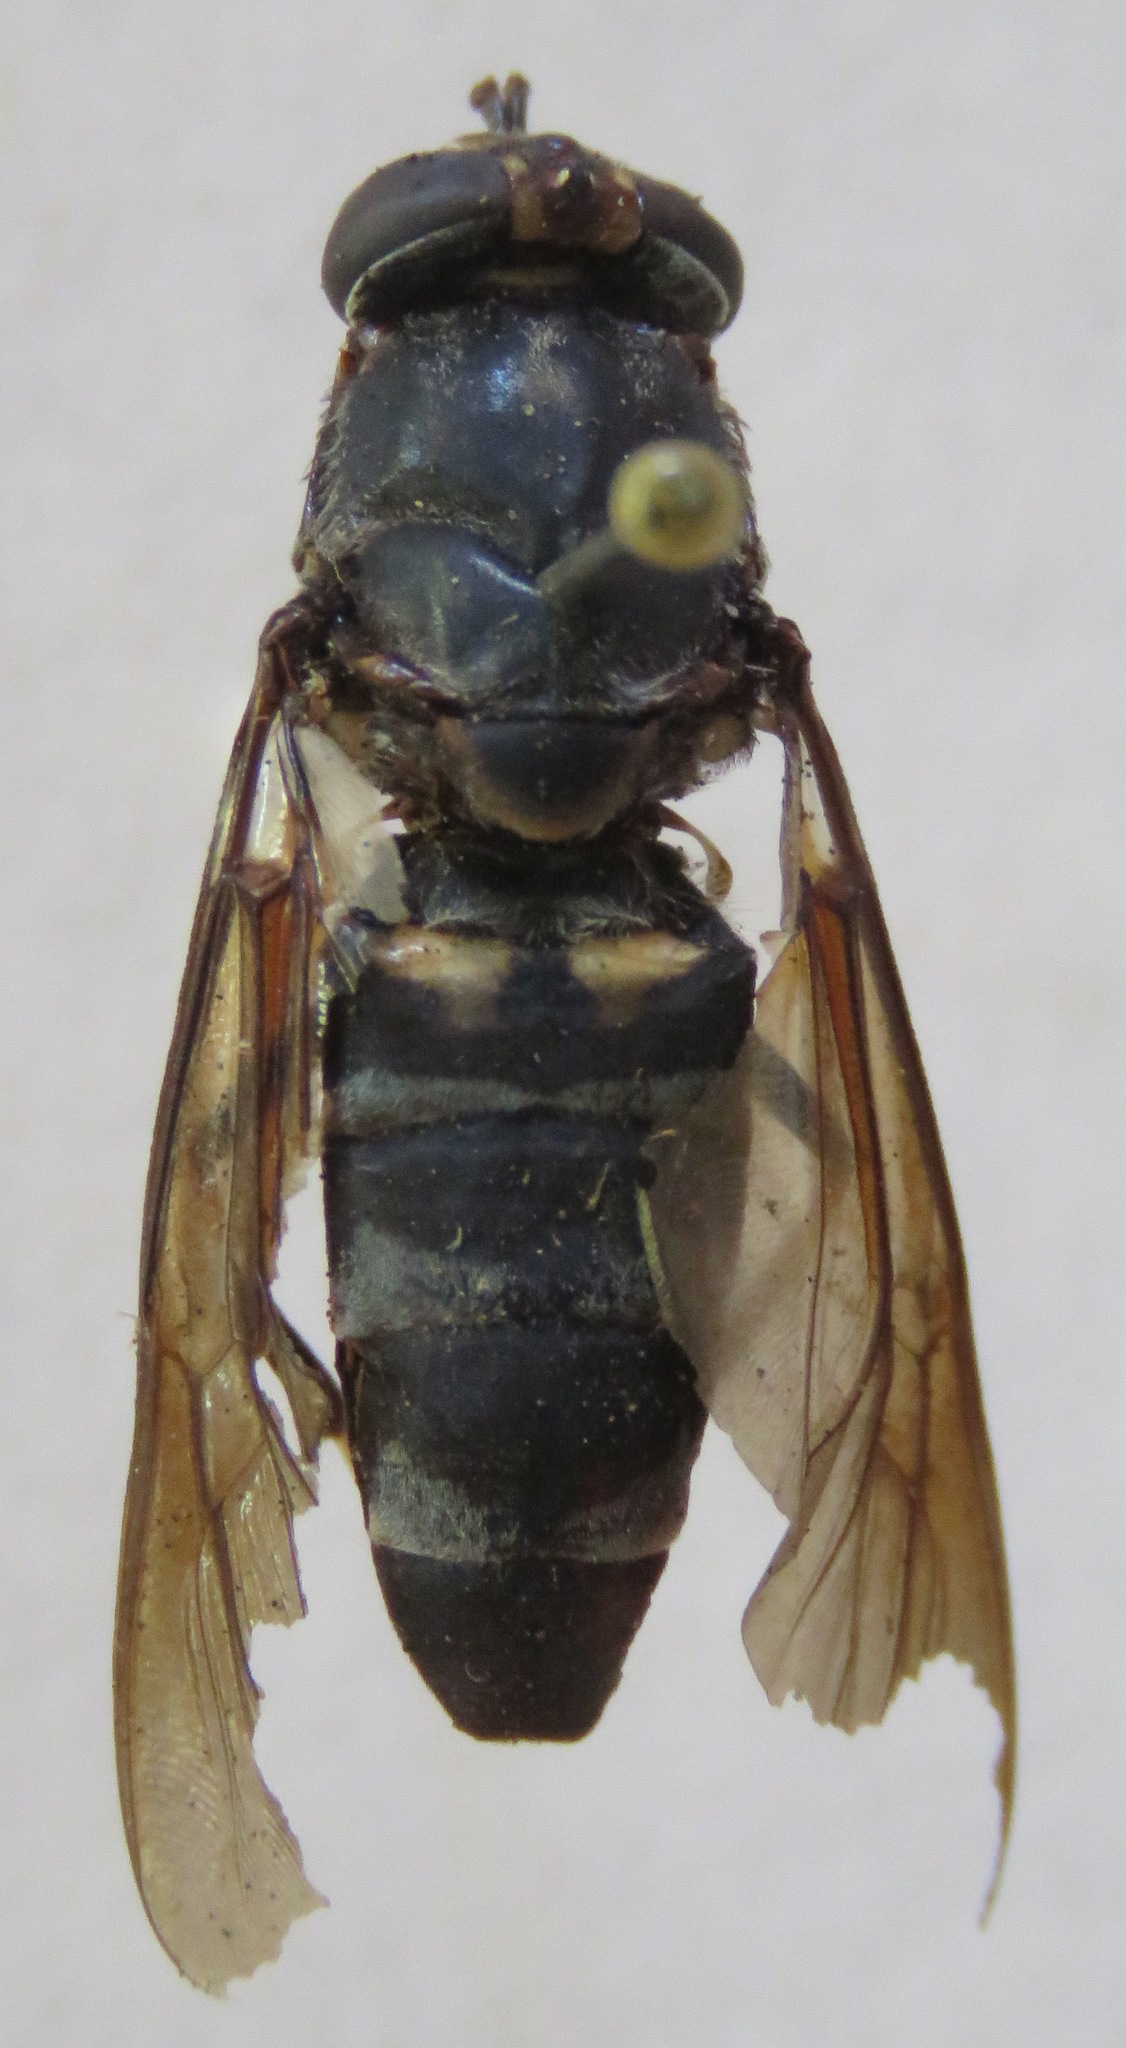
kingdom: Animalia
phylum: Arthropoda
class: Insecta
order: Diptera
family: Stratiomyidae
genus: Hermetia
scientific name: Hermetia illucens
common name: Black soldier fly
